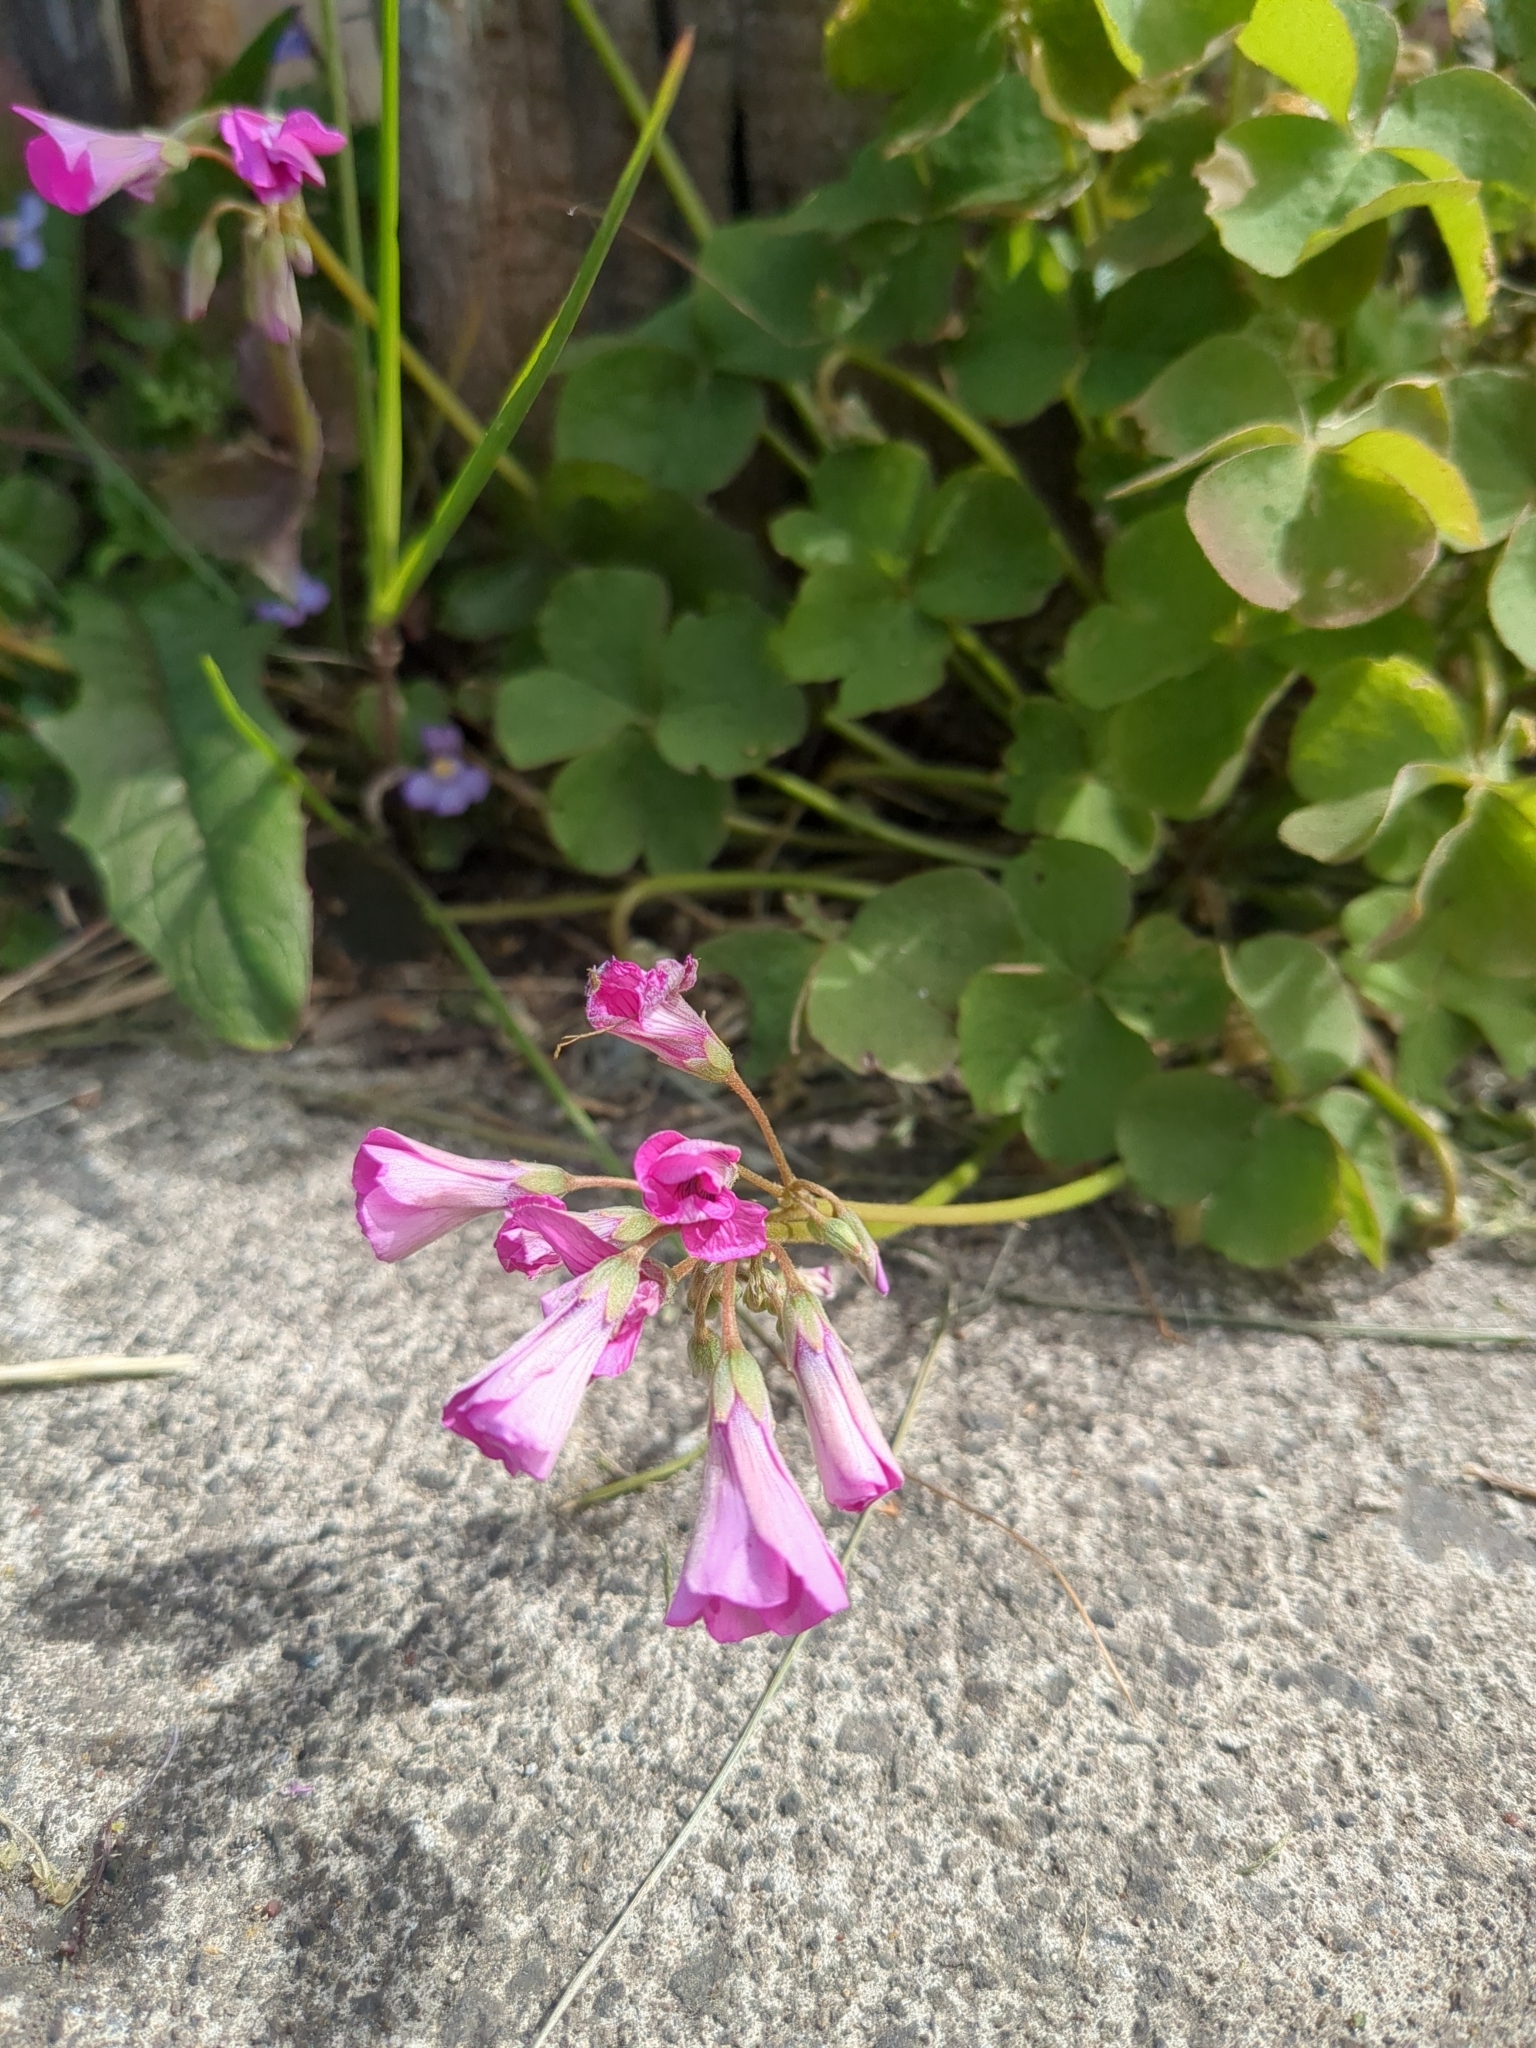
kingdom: Plantae
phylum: Tracheophyta
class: Magnoliopsida
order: Oxalidales
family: Oxalidaceae
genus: Oxalis
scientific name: Oxalis articulata
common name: Pink-sorrel
